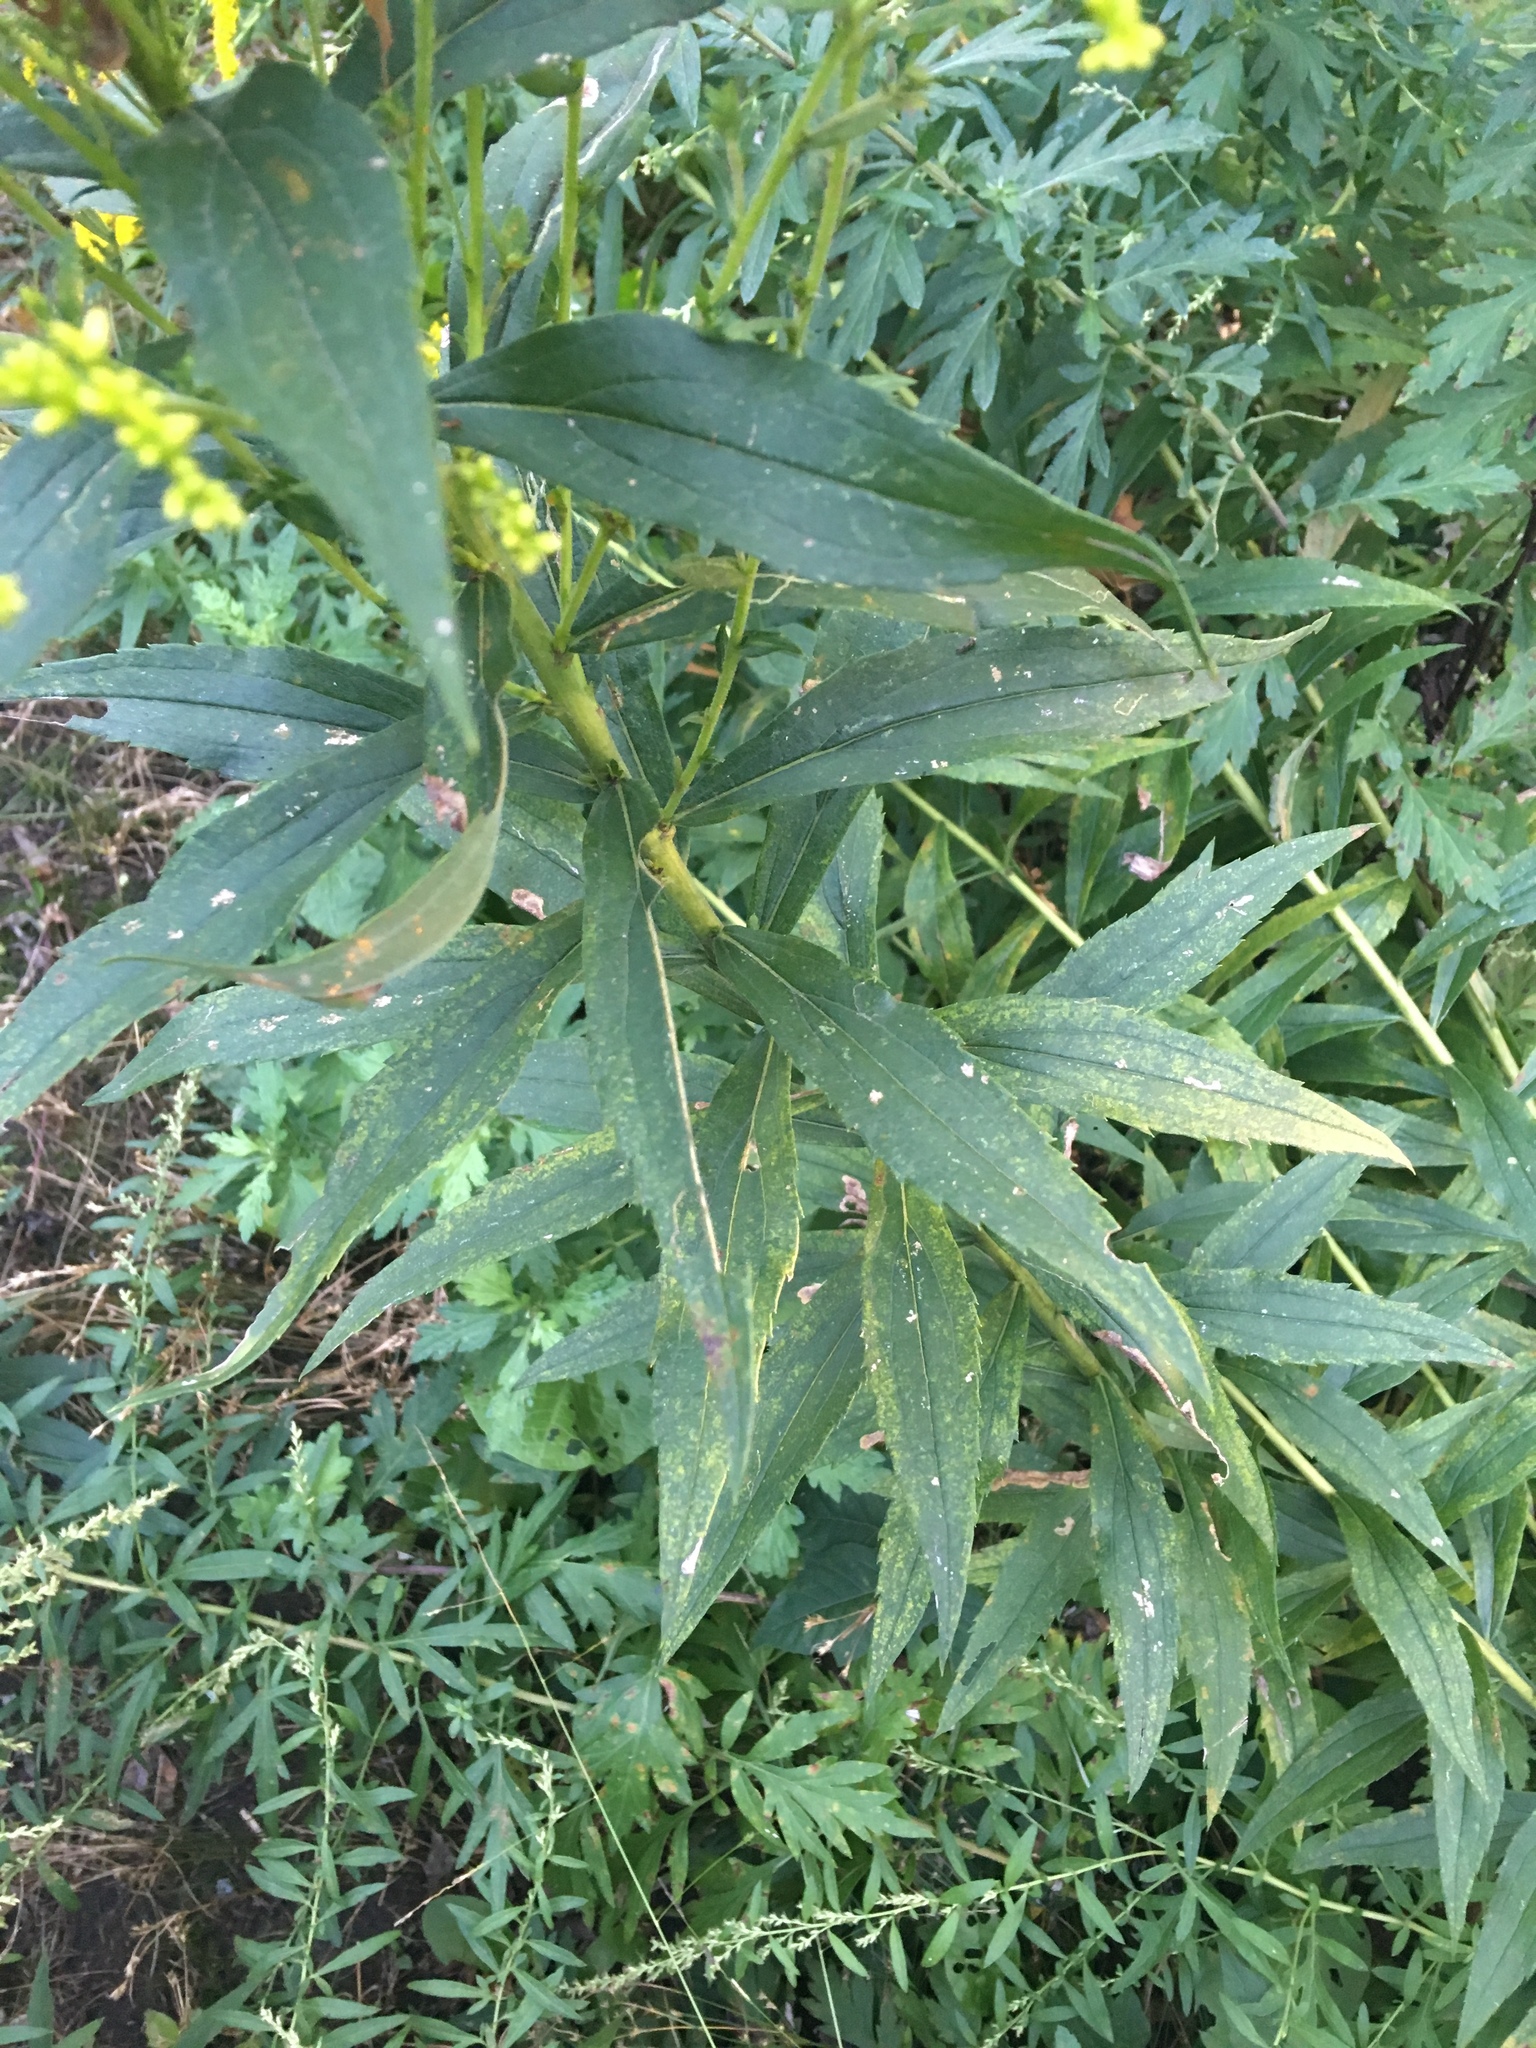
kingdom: Plantae
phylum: Tracheophyta
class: Magnoliopsida
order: Asterales
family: Asteraceae
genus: Solidago
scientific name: Solidago altissima
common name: Late goldenrod
